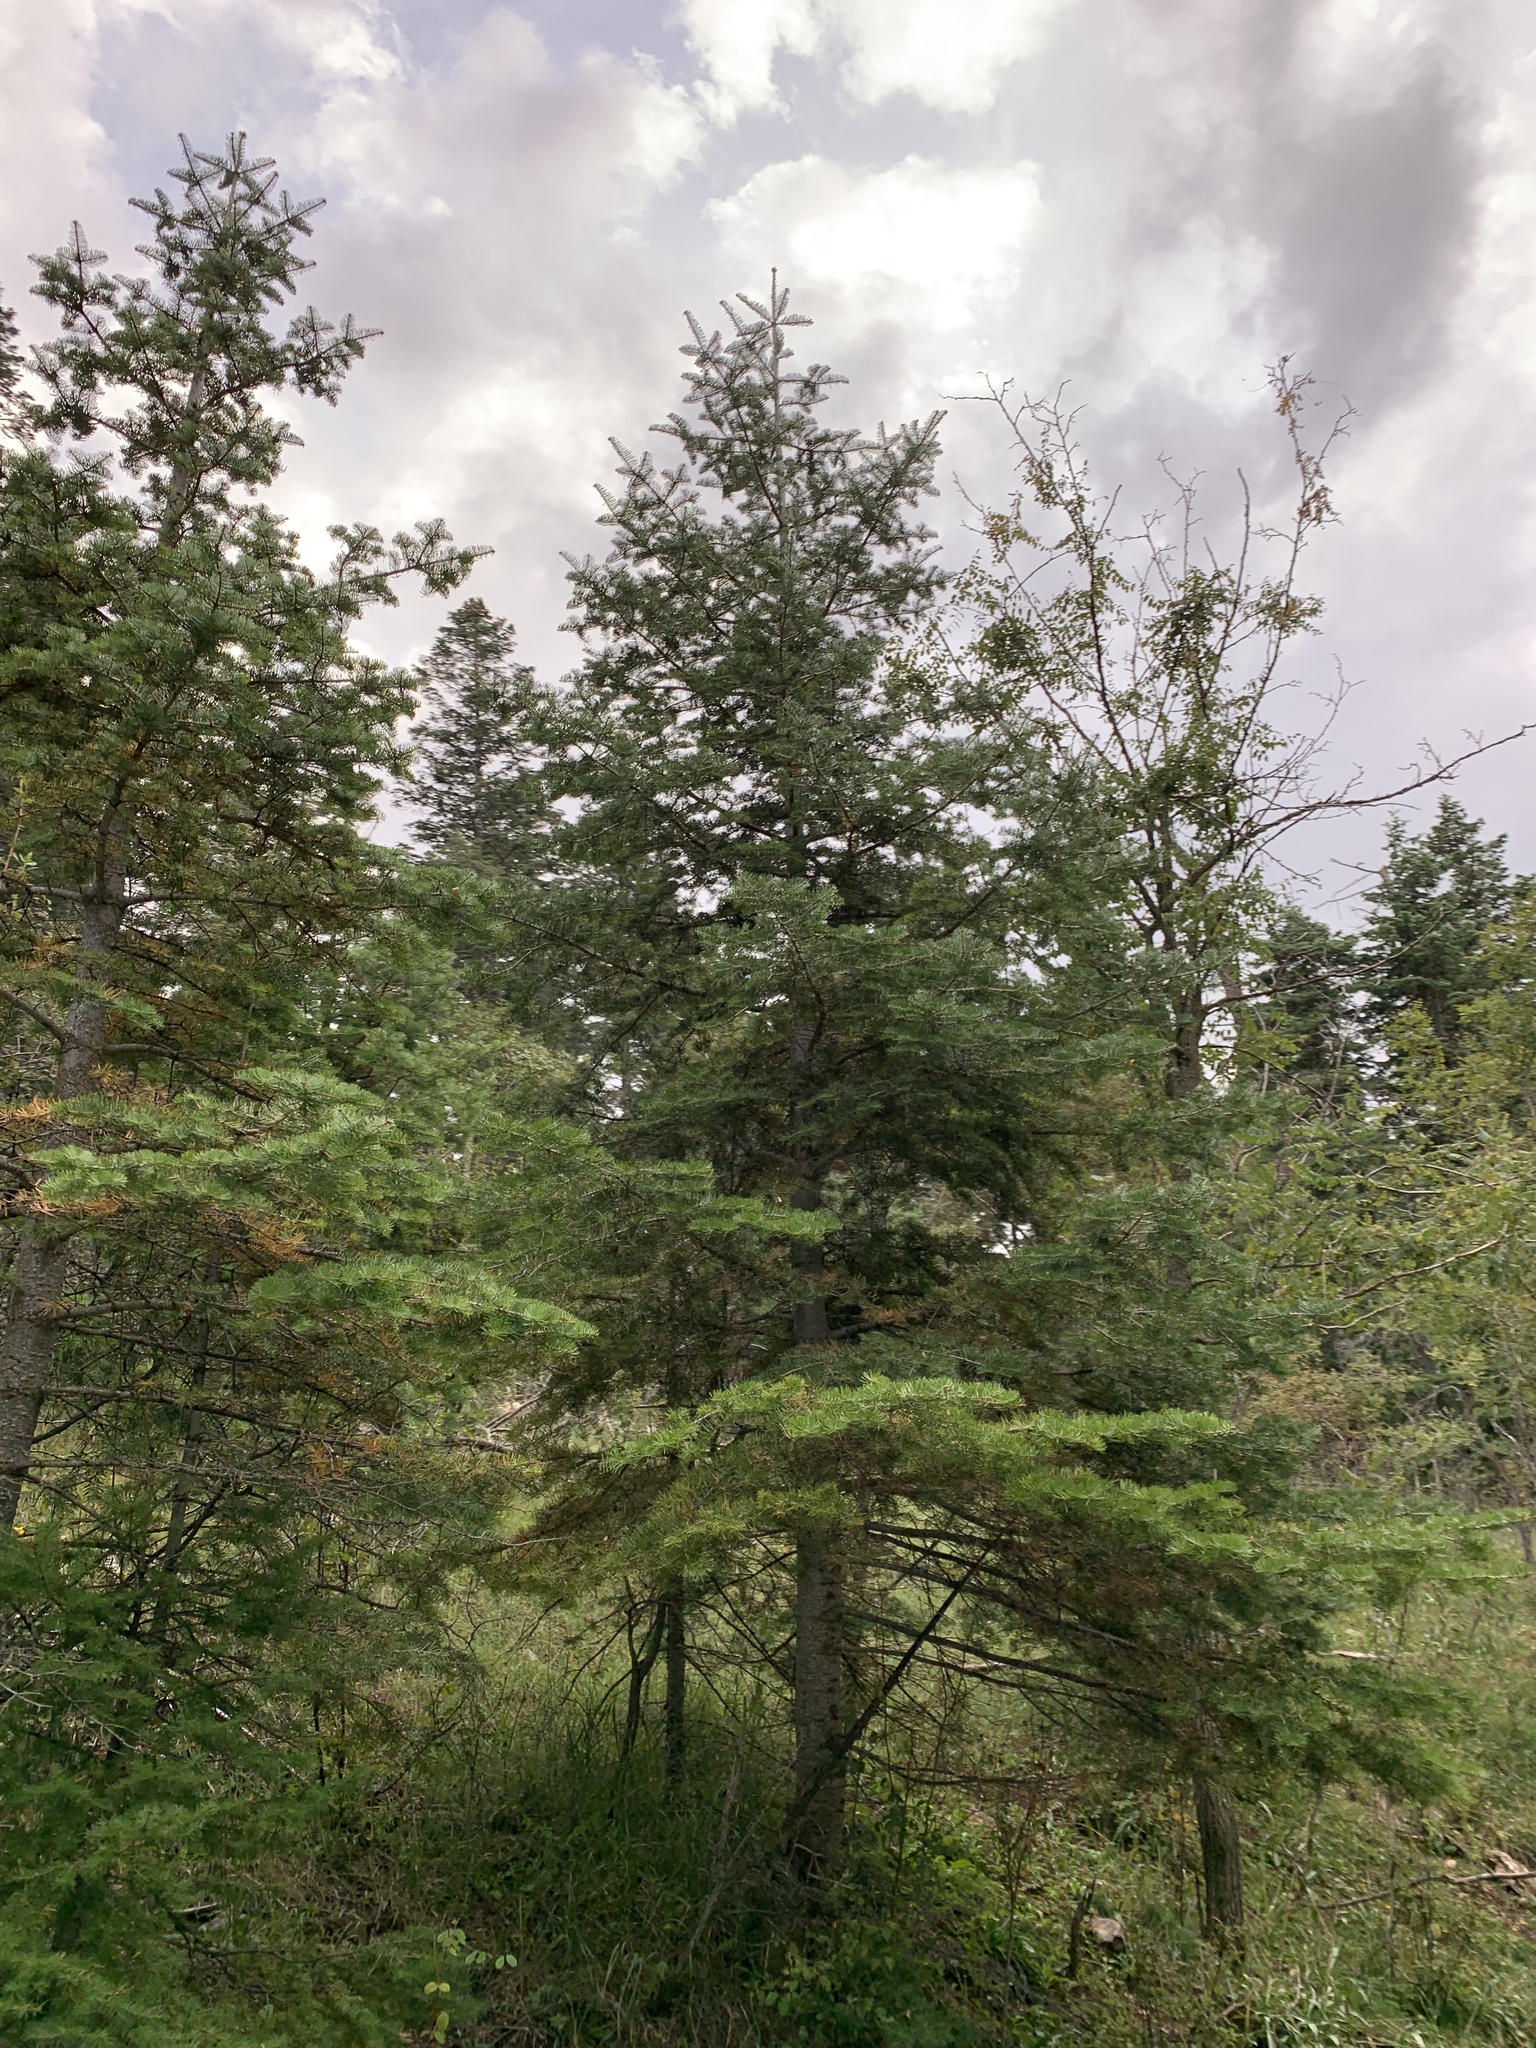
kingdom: Plantae
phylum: Tracheophyta
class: Pinopsida
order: Pinales
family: Pinaceae
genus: Abies
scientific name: Abies concolor
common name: Colorado fir
